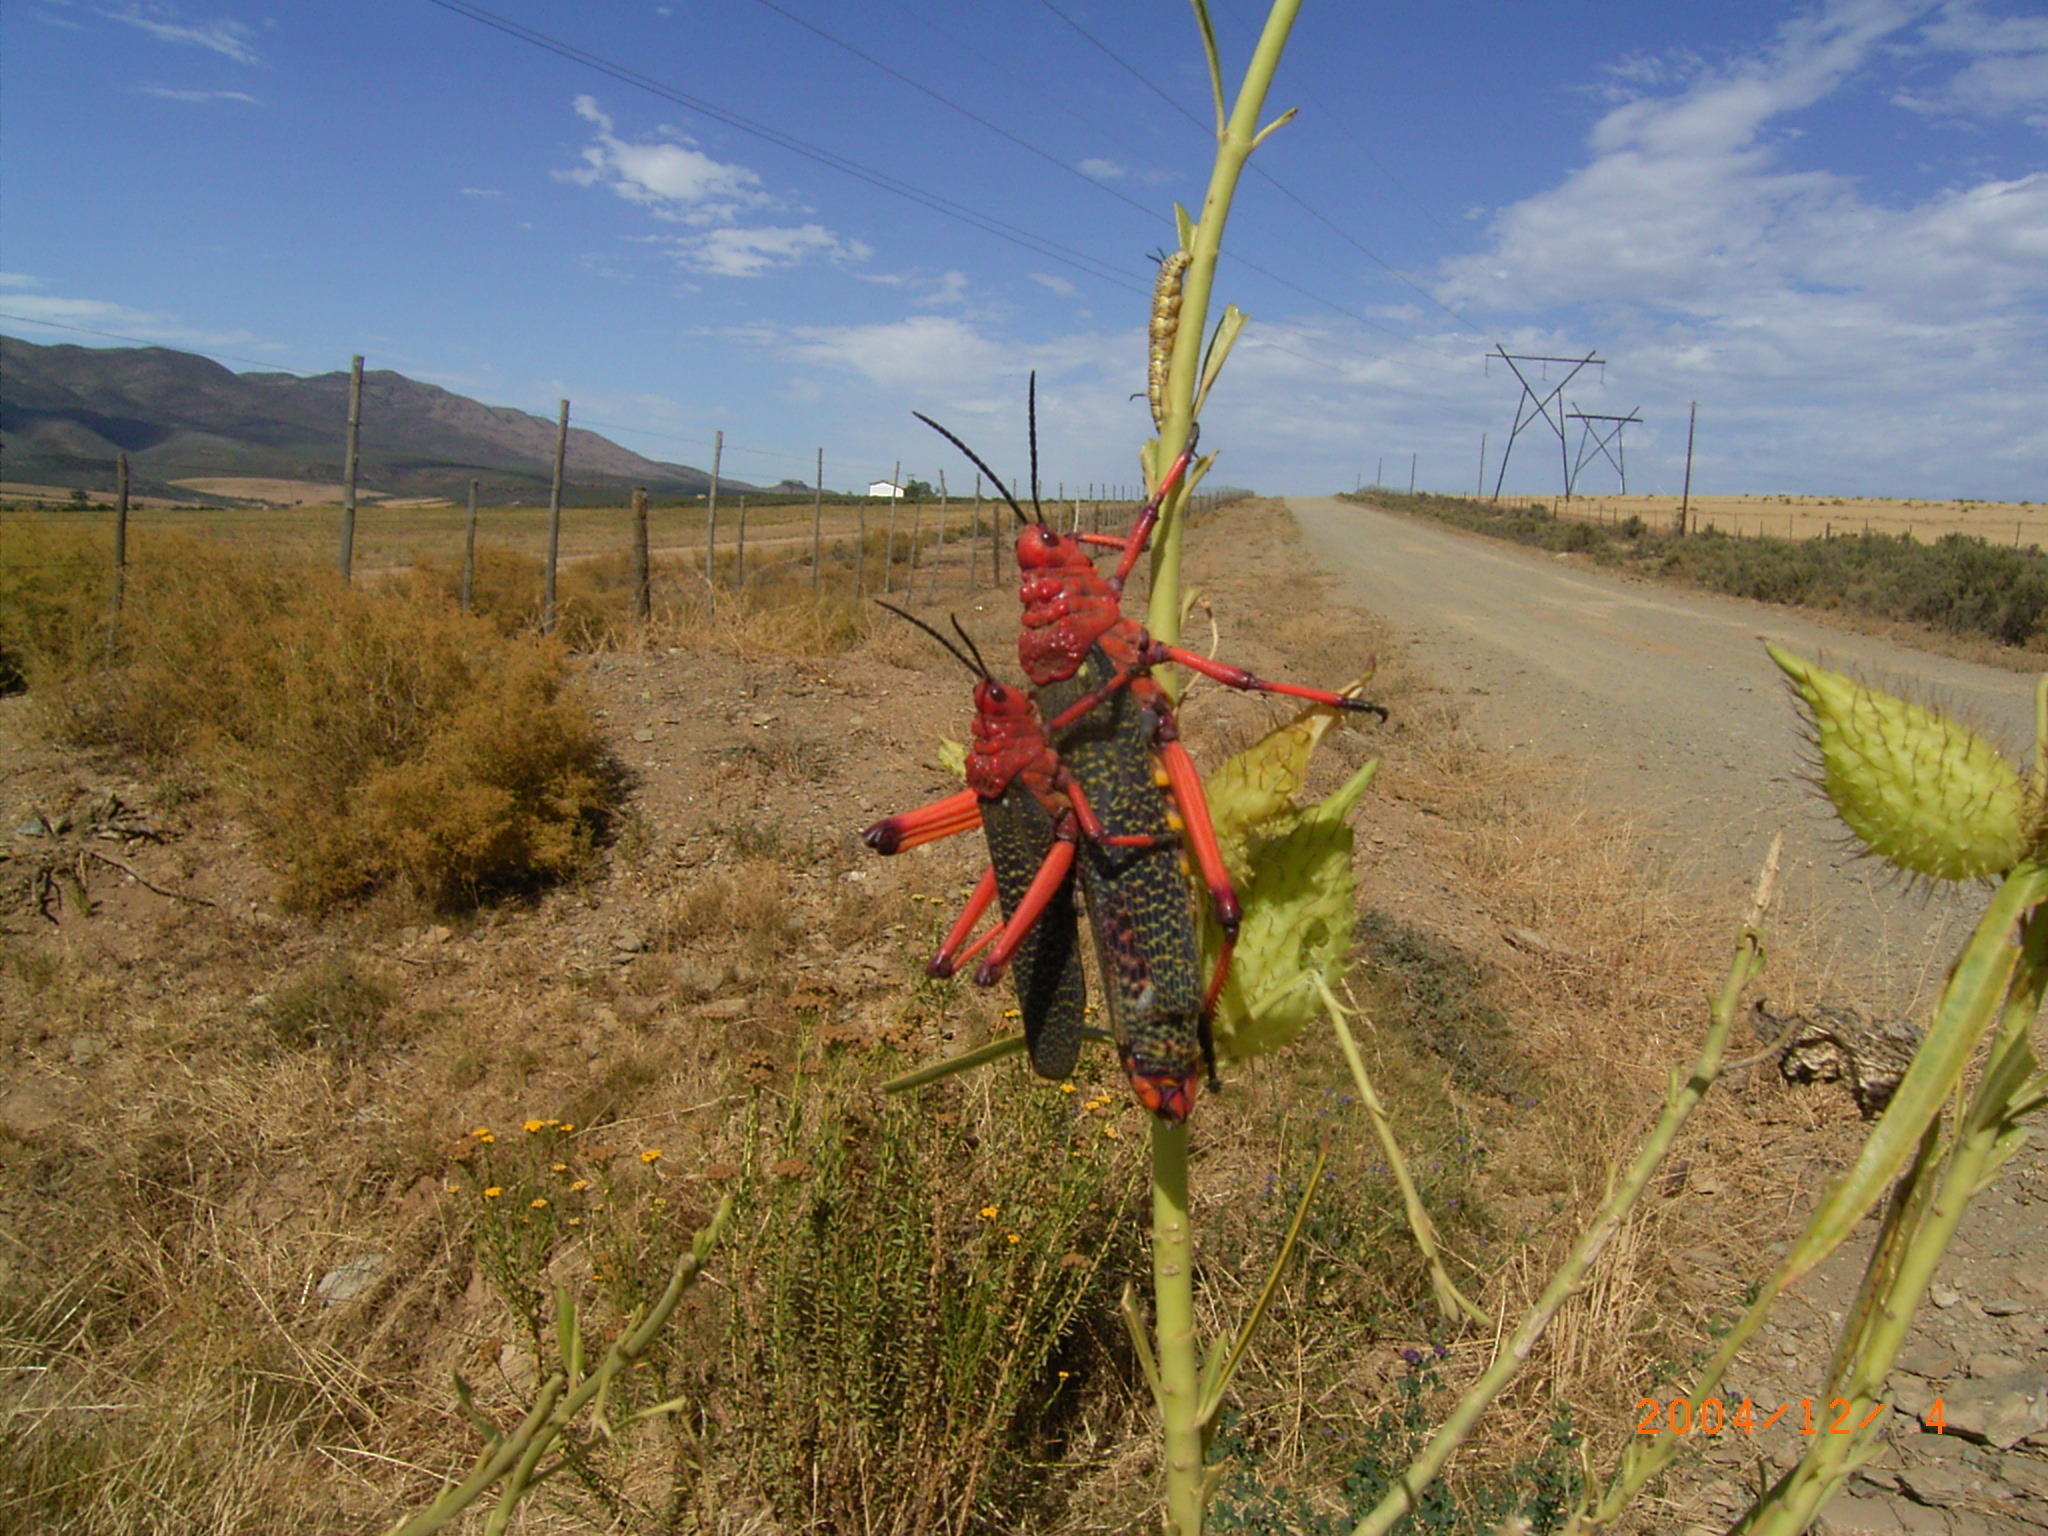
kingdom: Animalia
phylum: Arthropoda
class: Insecta
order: Orthoptera
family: Pyrgomorphidae
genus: Phymateus
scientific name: Phymateus morbillosus
